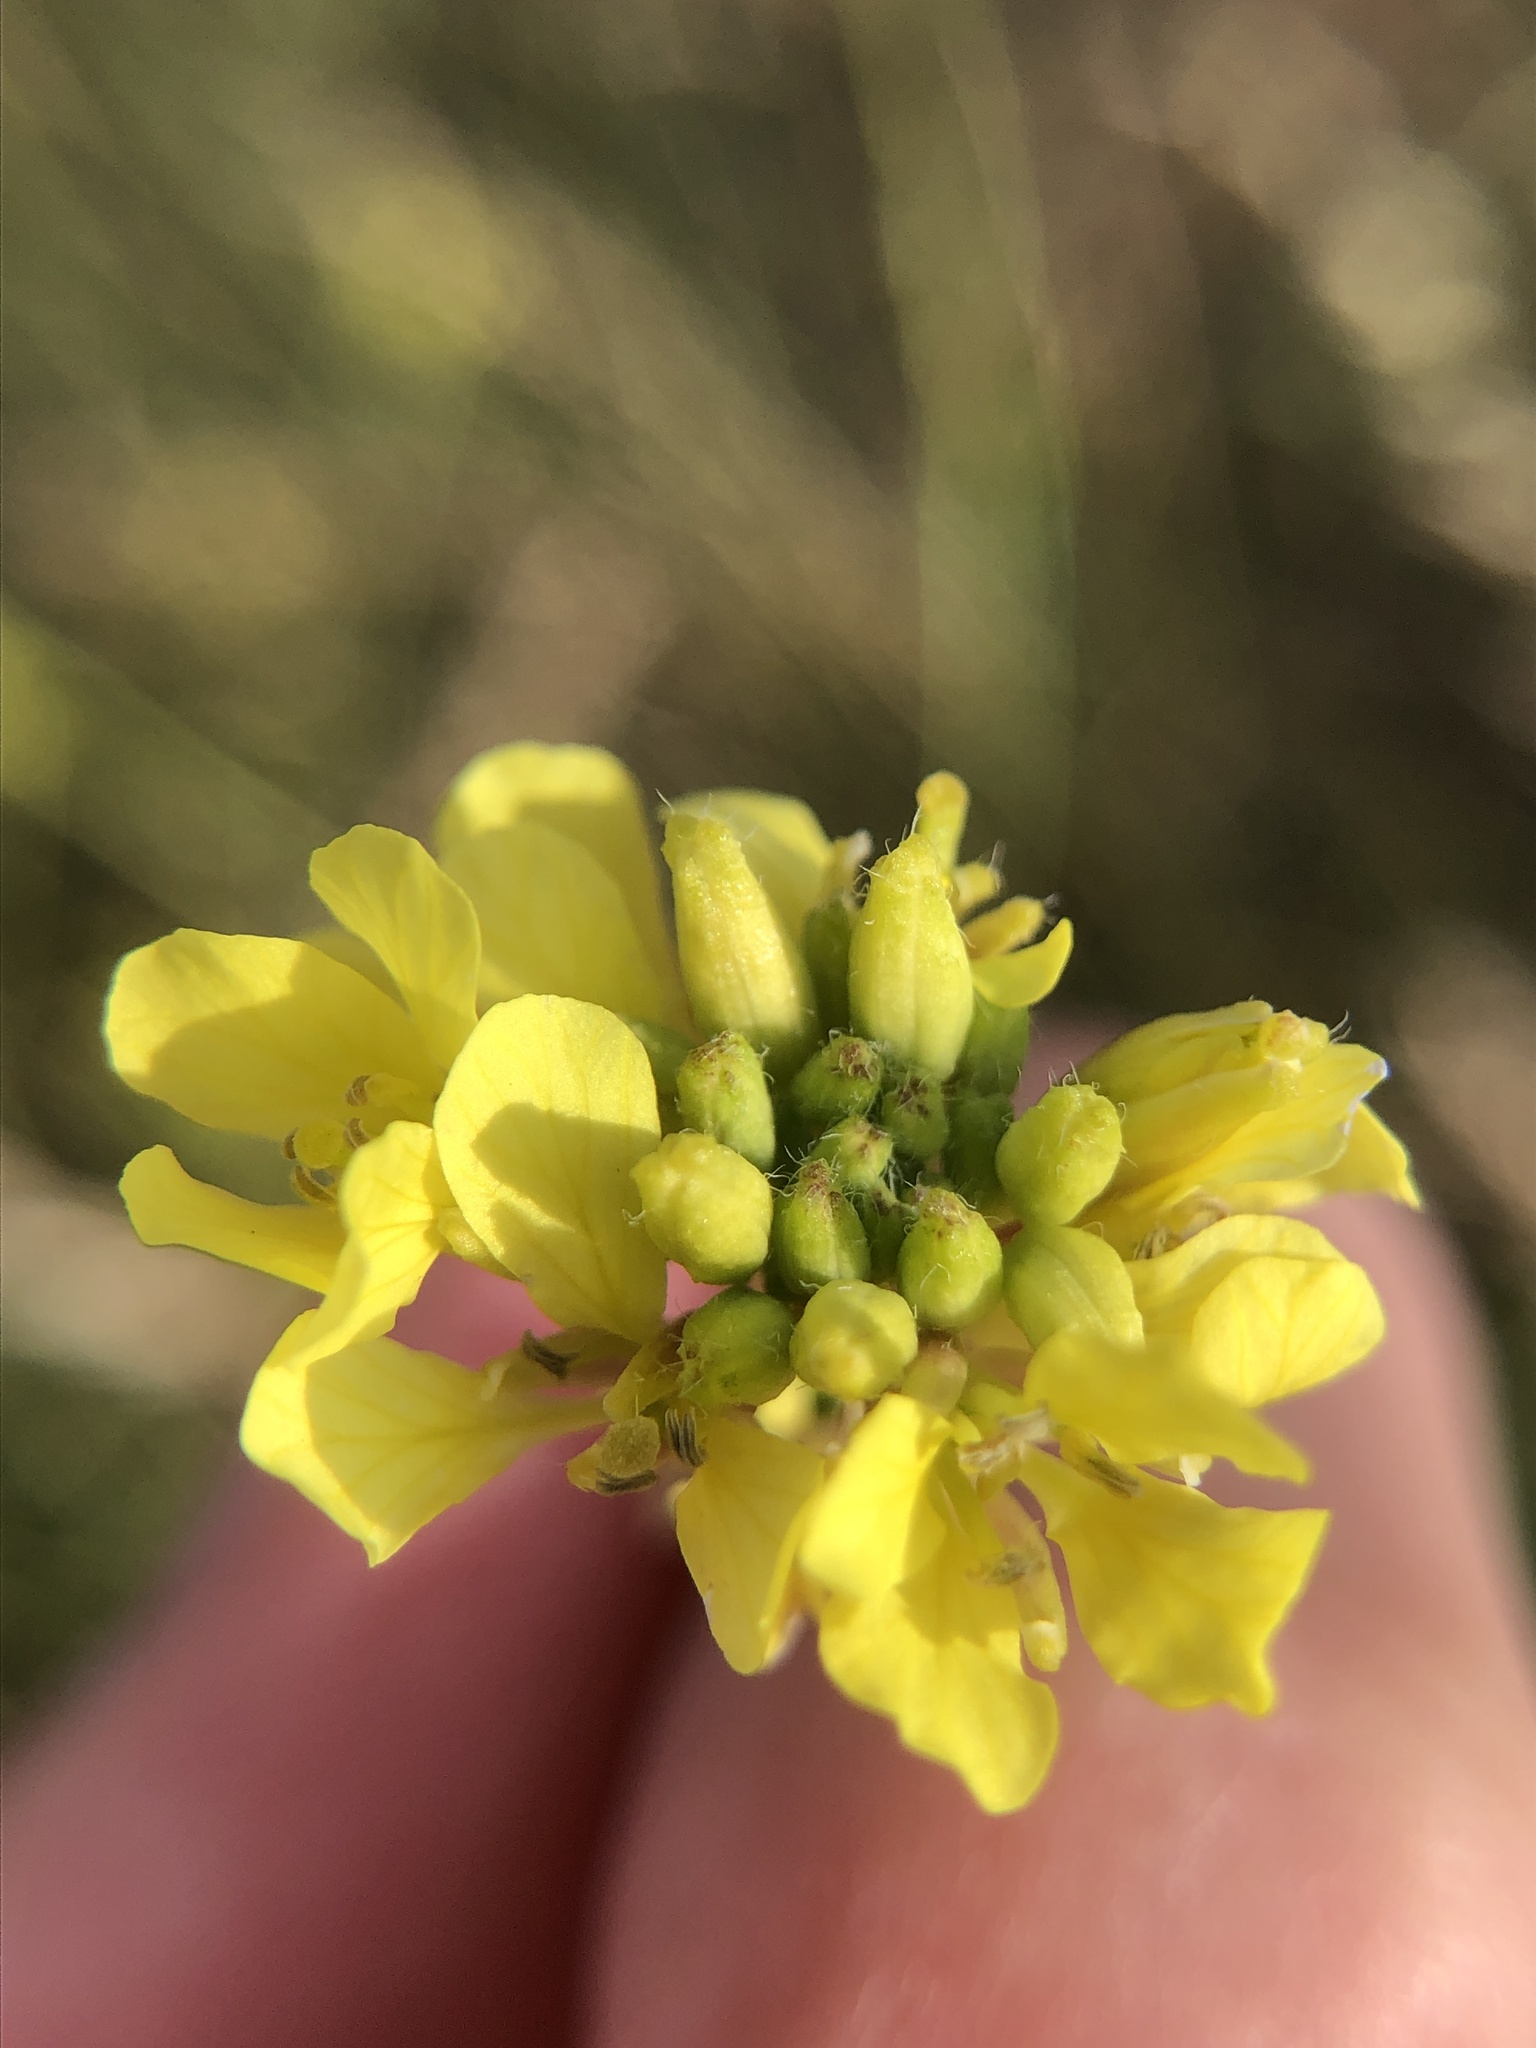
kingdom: Plantae
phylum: Tracheophyta
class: Magnoliopsida
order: Brassicales
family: Brassicaceae
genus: Brassica
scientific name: Brassica nigra
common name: Black mustard
